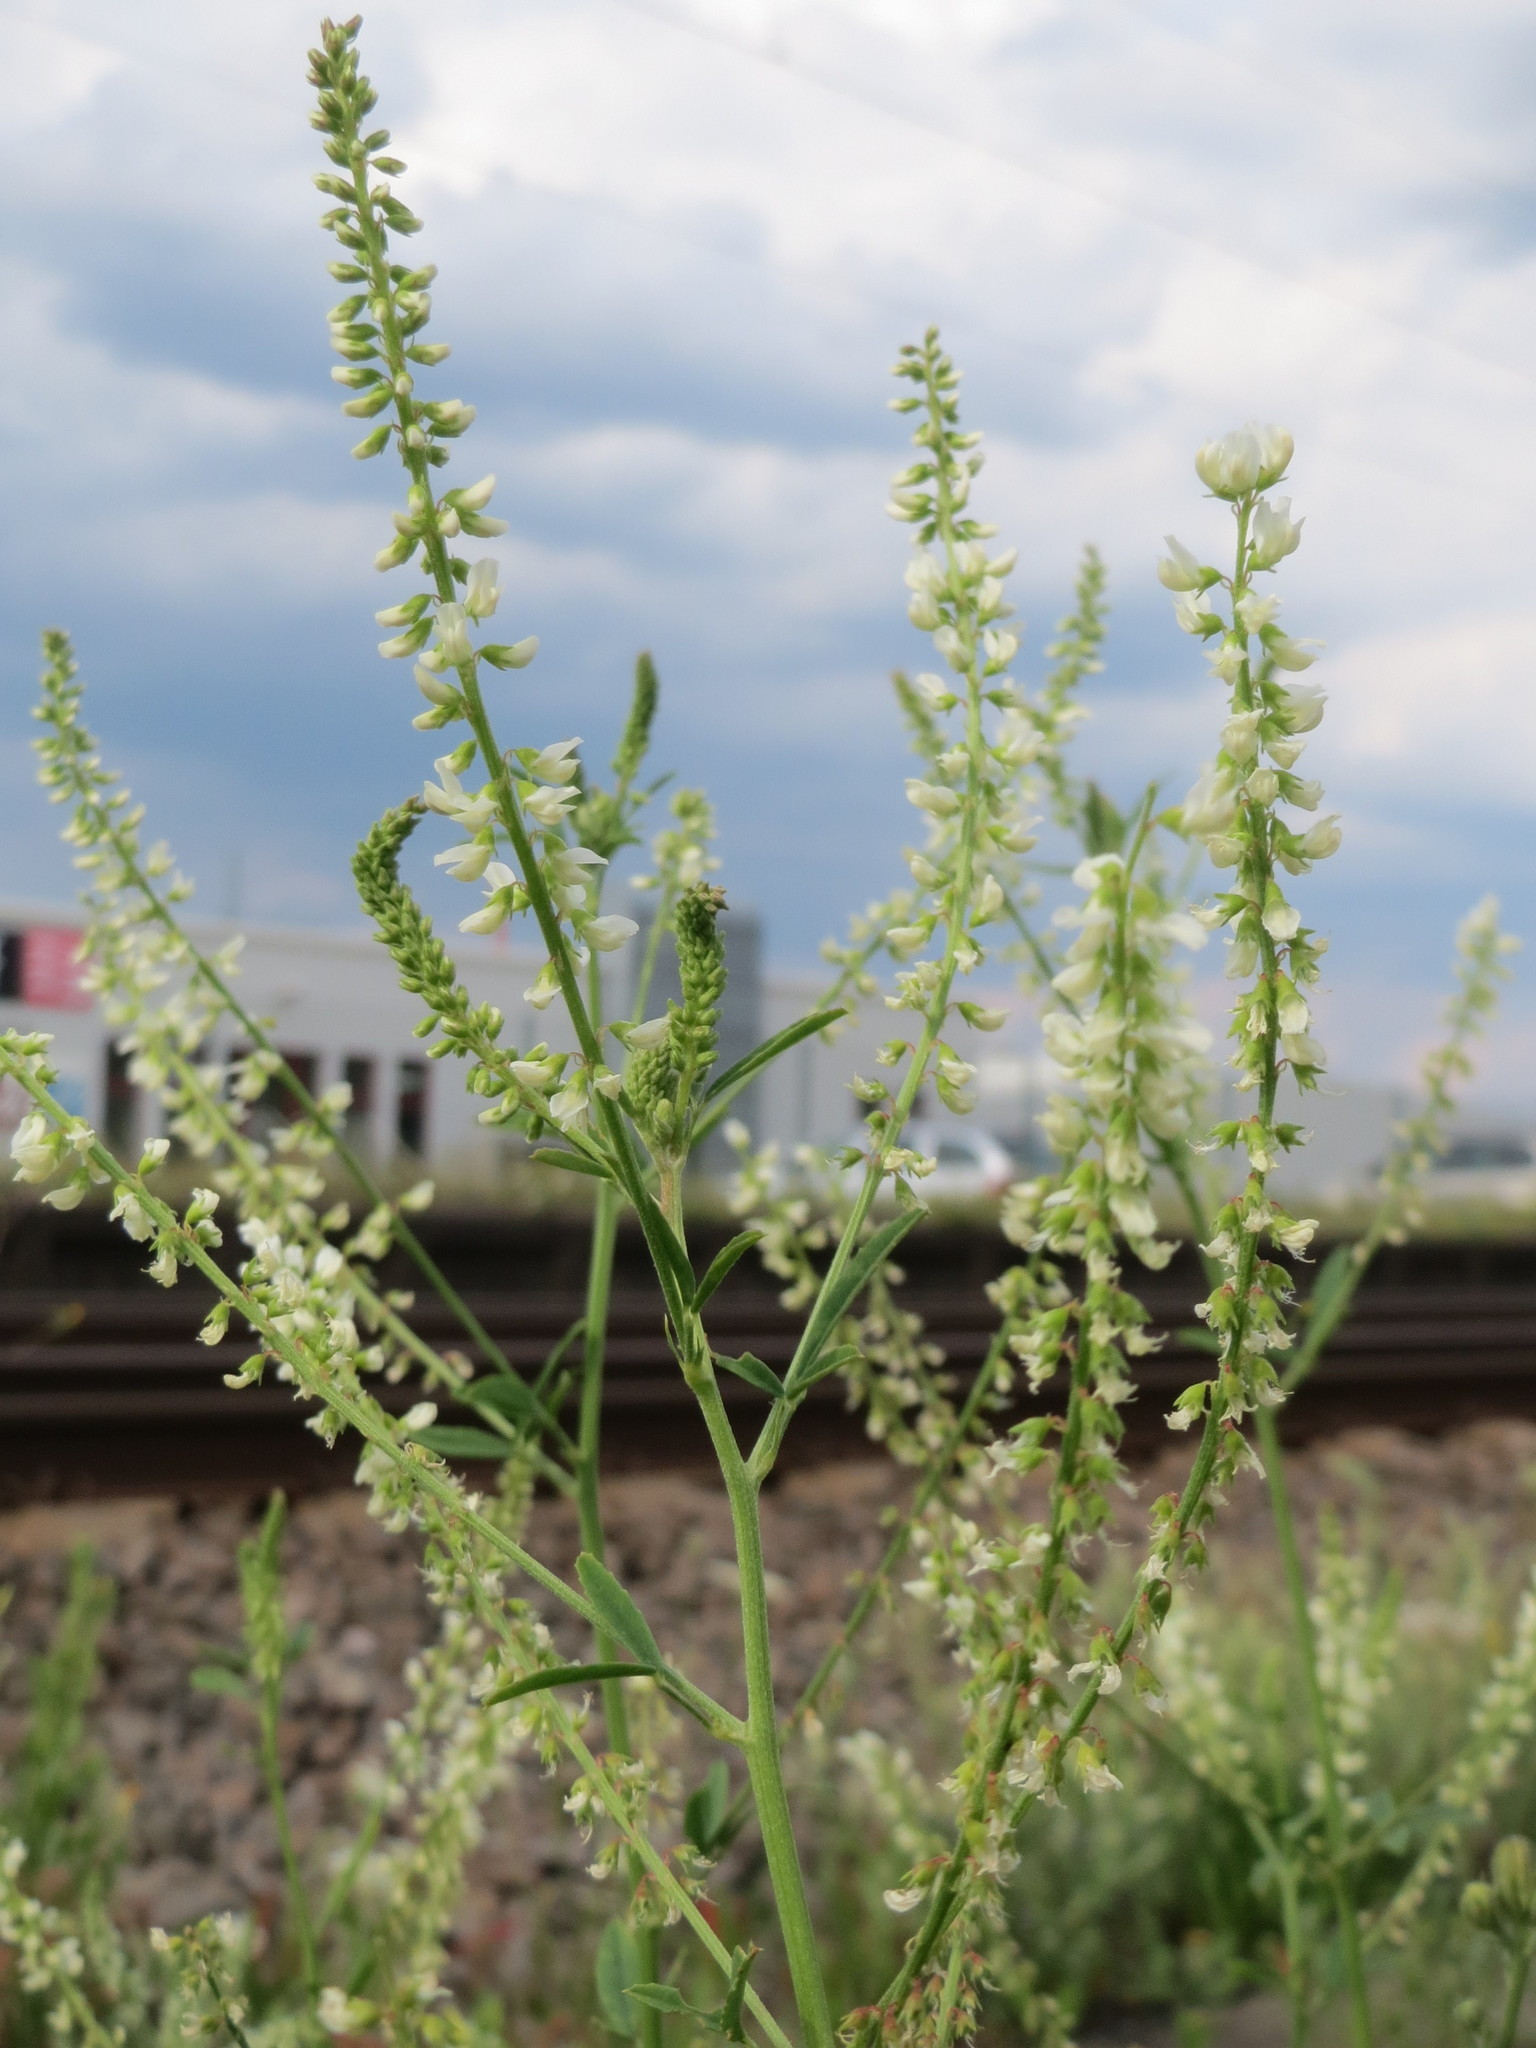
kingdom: Plantae
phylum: Tracheophyta
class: Magnoliopsida
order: Fabales
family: Fabaceae
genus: Melilotus
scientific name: Melilotus albus
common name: White melilot
